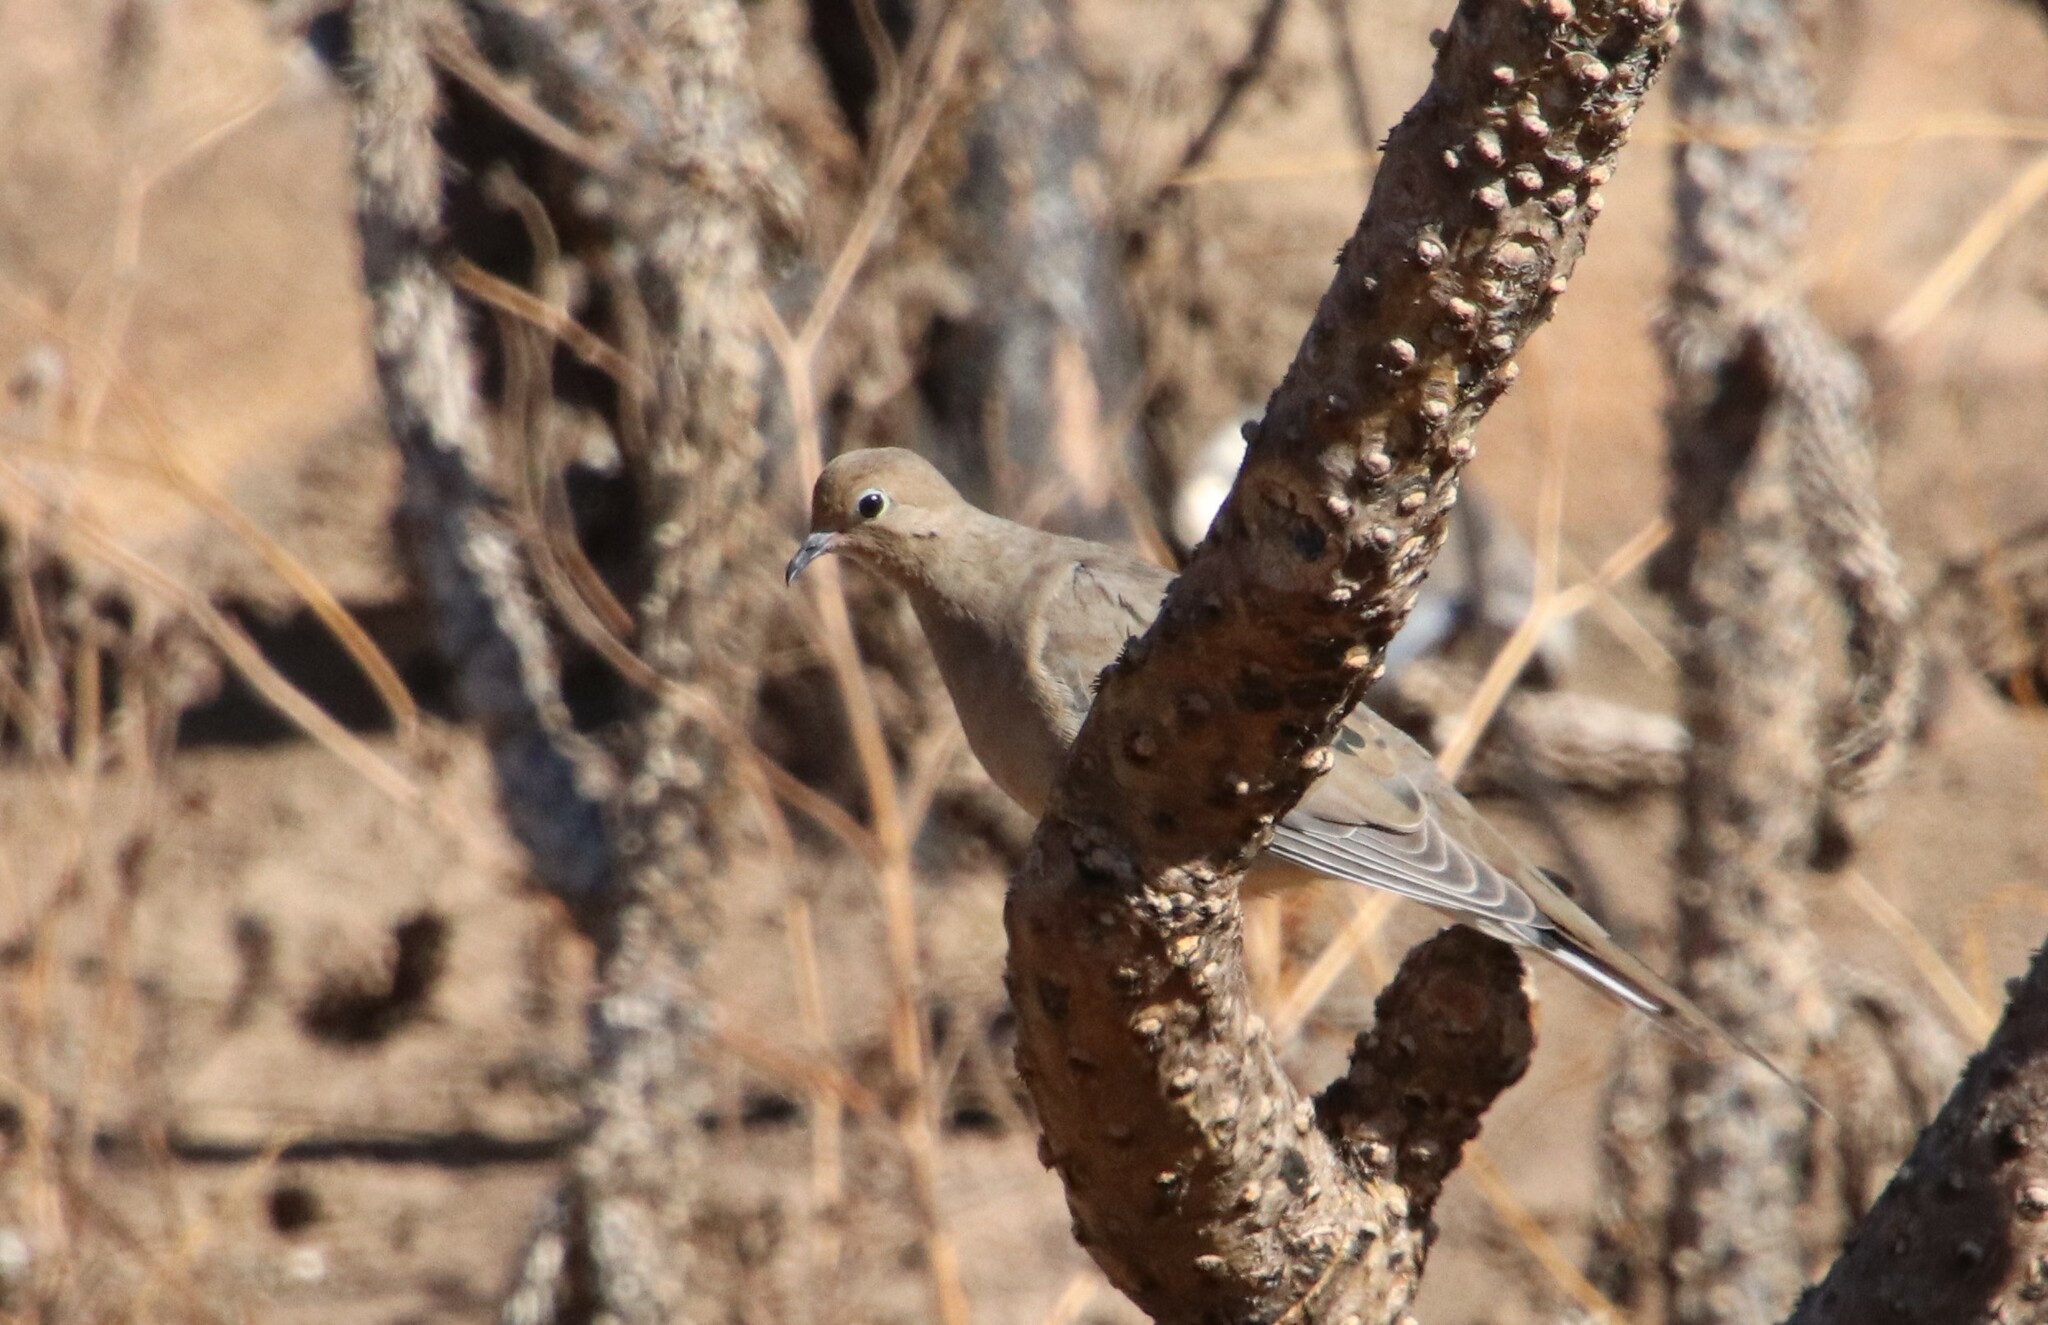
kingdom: Animalia
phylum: Chordata
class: Aves
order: Columbiformes
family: Columbidae
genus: Zenaida
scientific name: Zenaida macroura
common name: Mourning dove
